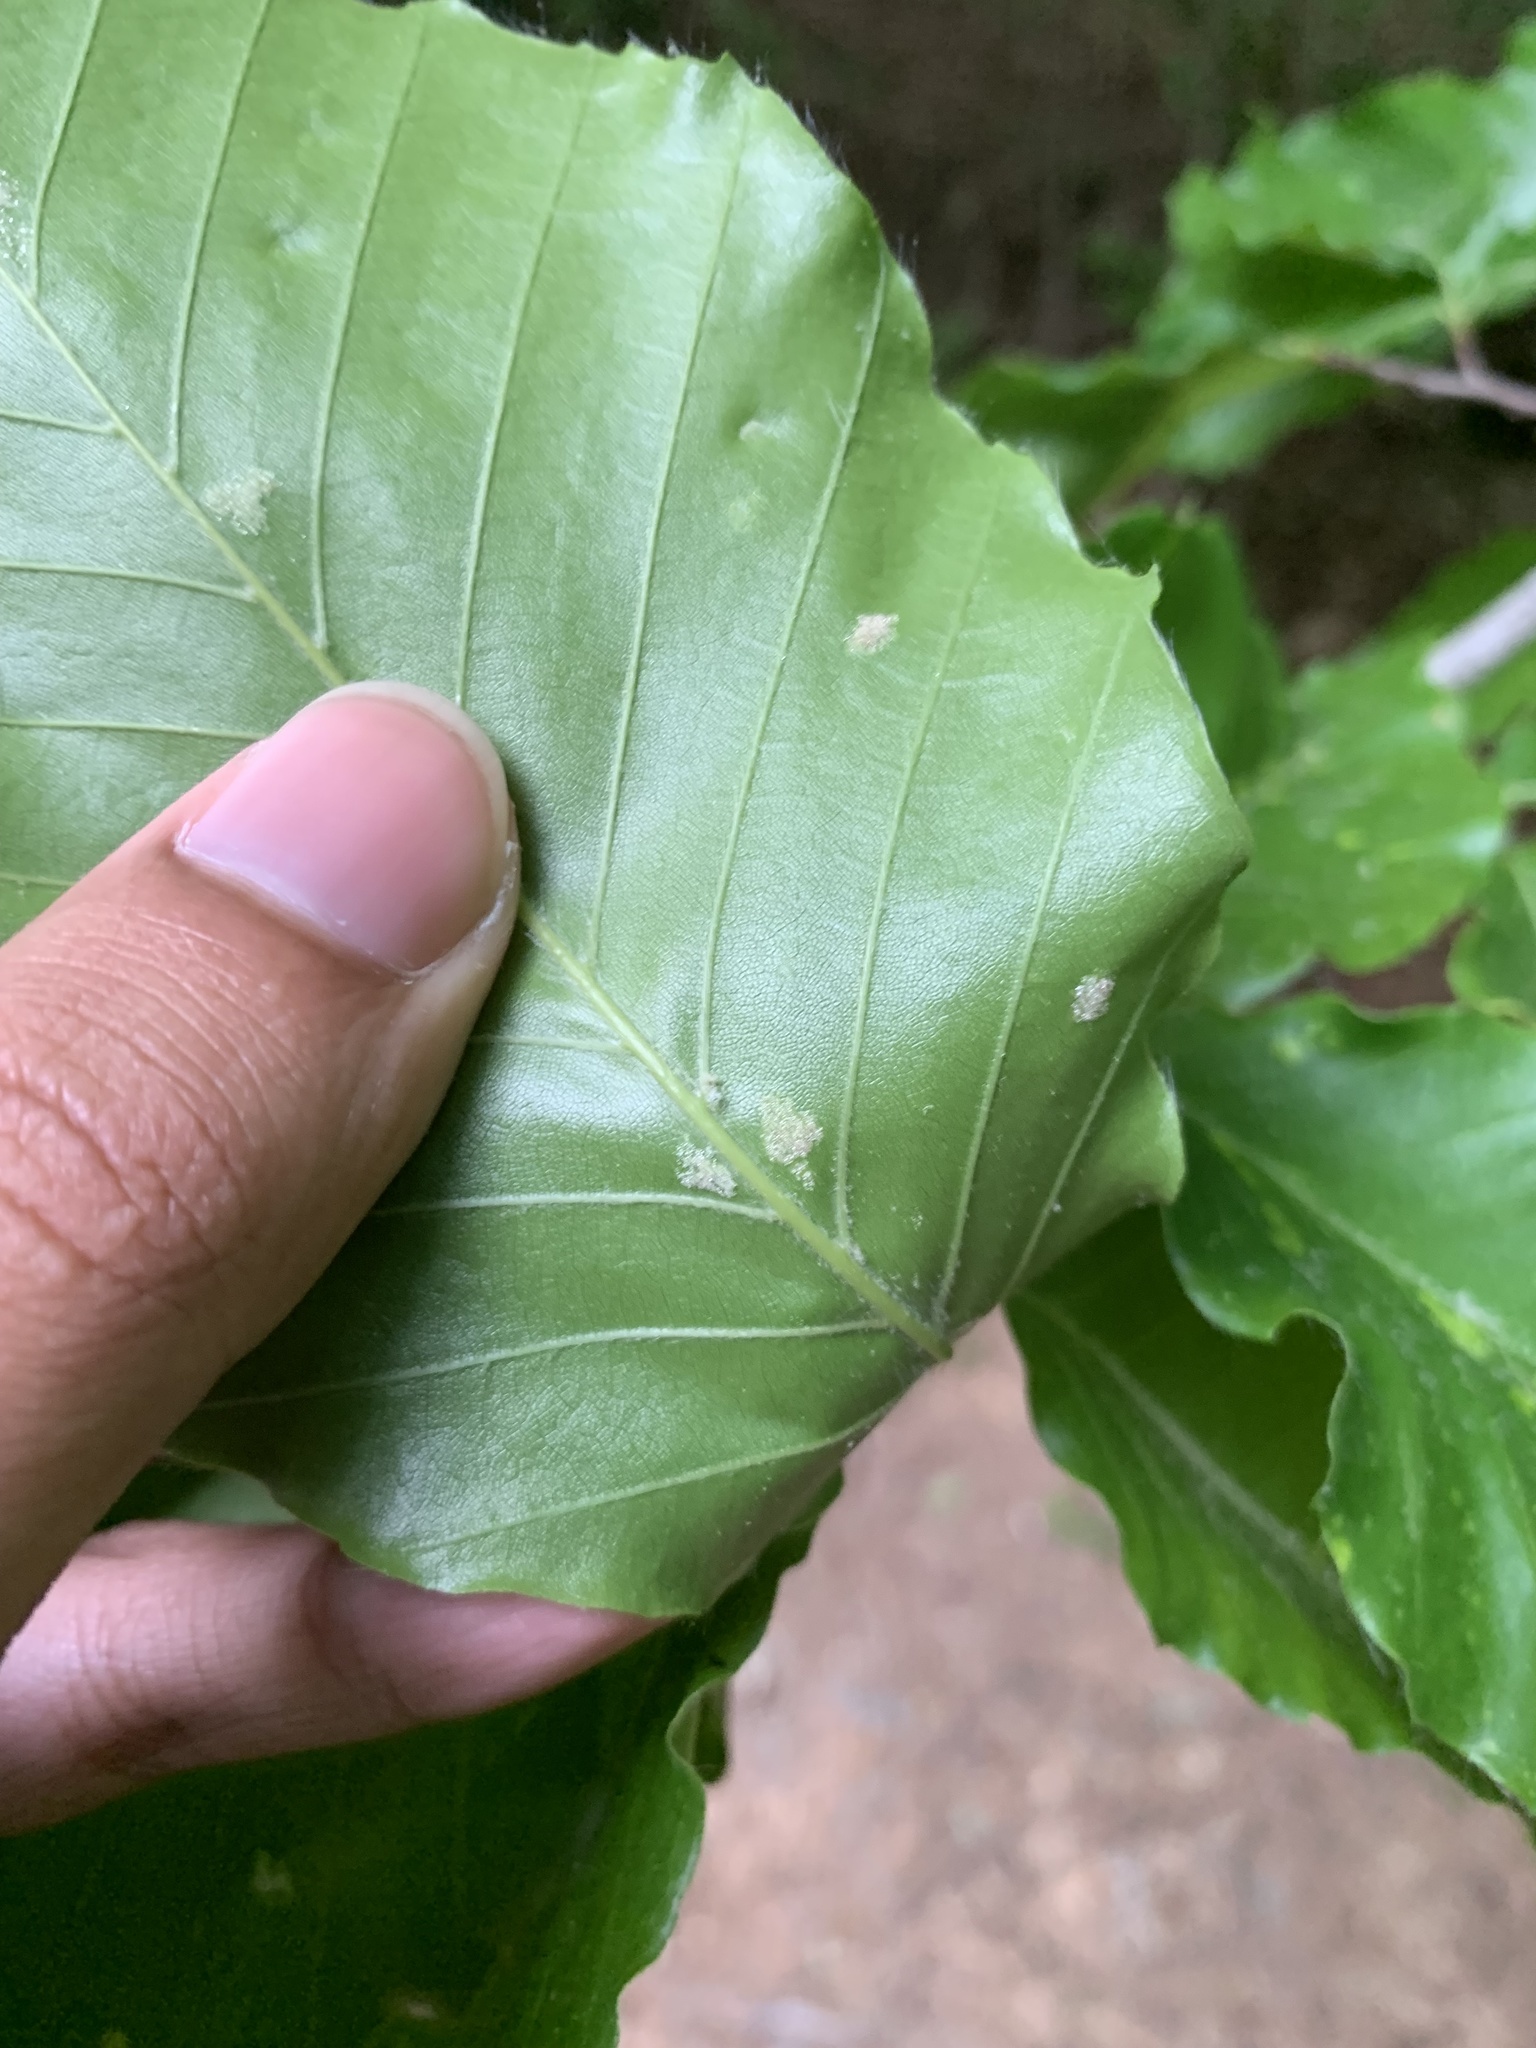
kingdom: Animalia
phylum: Arthropoda
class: Arachnida
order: Trombidiformes
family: Eriophyidae
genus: Acalitus
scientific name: Acalitus
